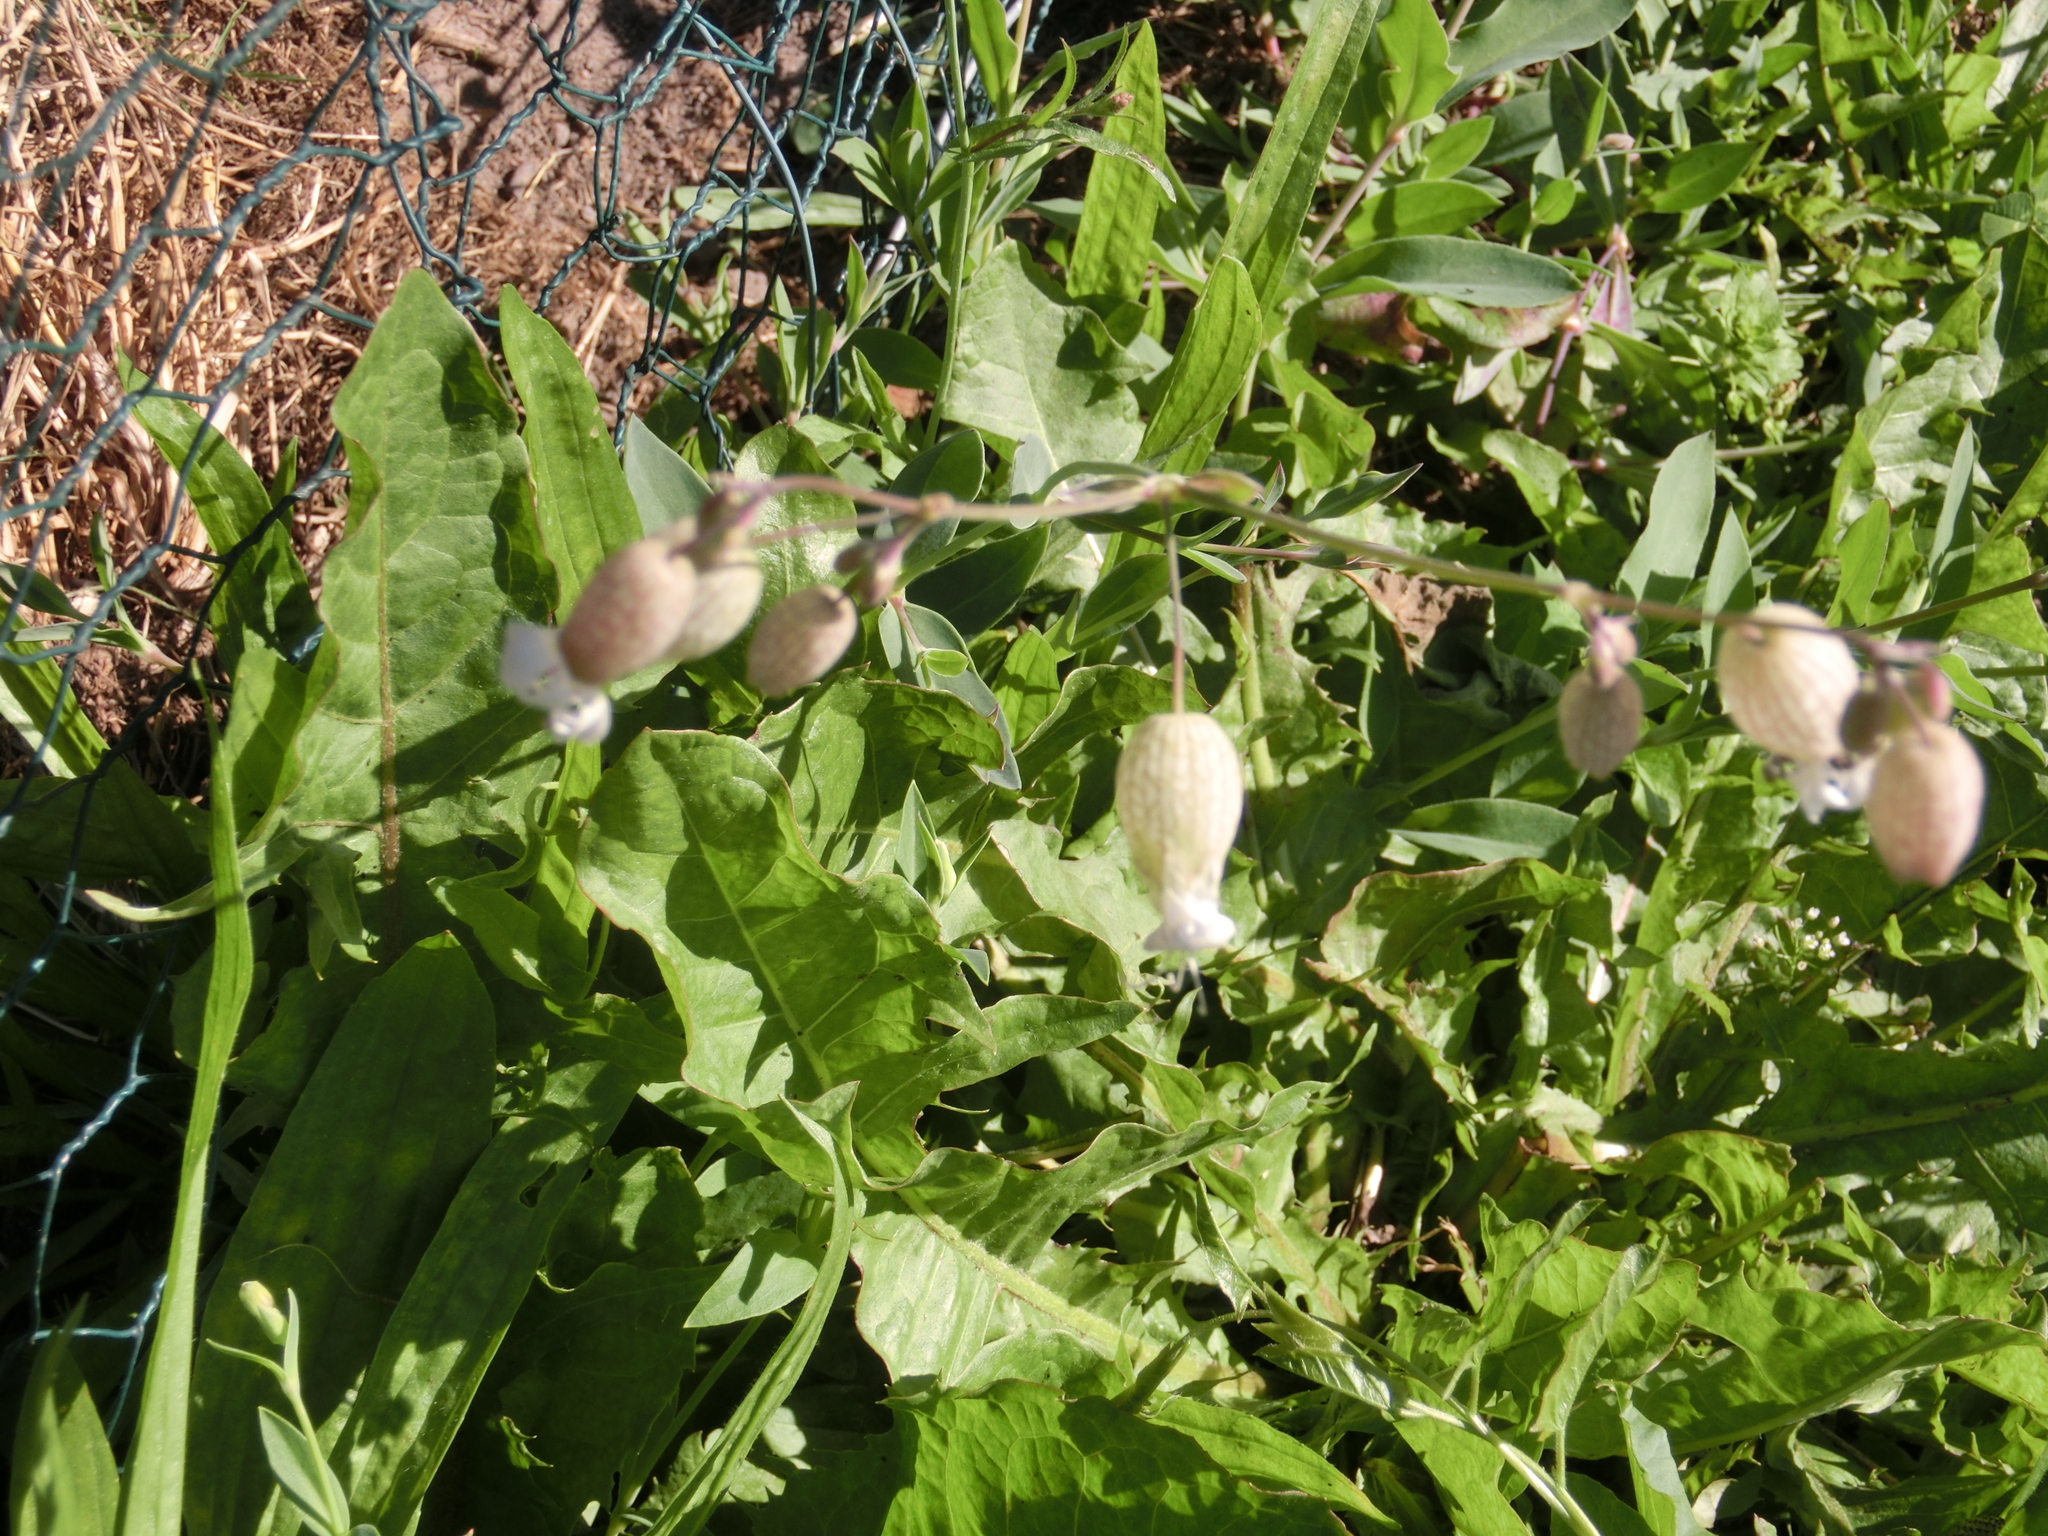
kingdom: Plantae
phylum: Tracheophyta
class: Magnoliopsida
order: Caryophyllales
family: Caryophyllaceae
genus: Silene
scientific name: Silene vulgaris
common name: Bladder campion
